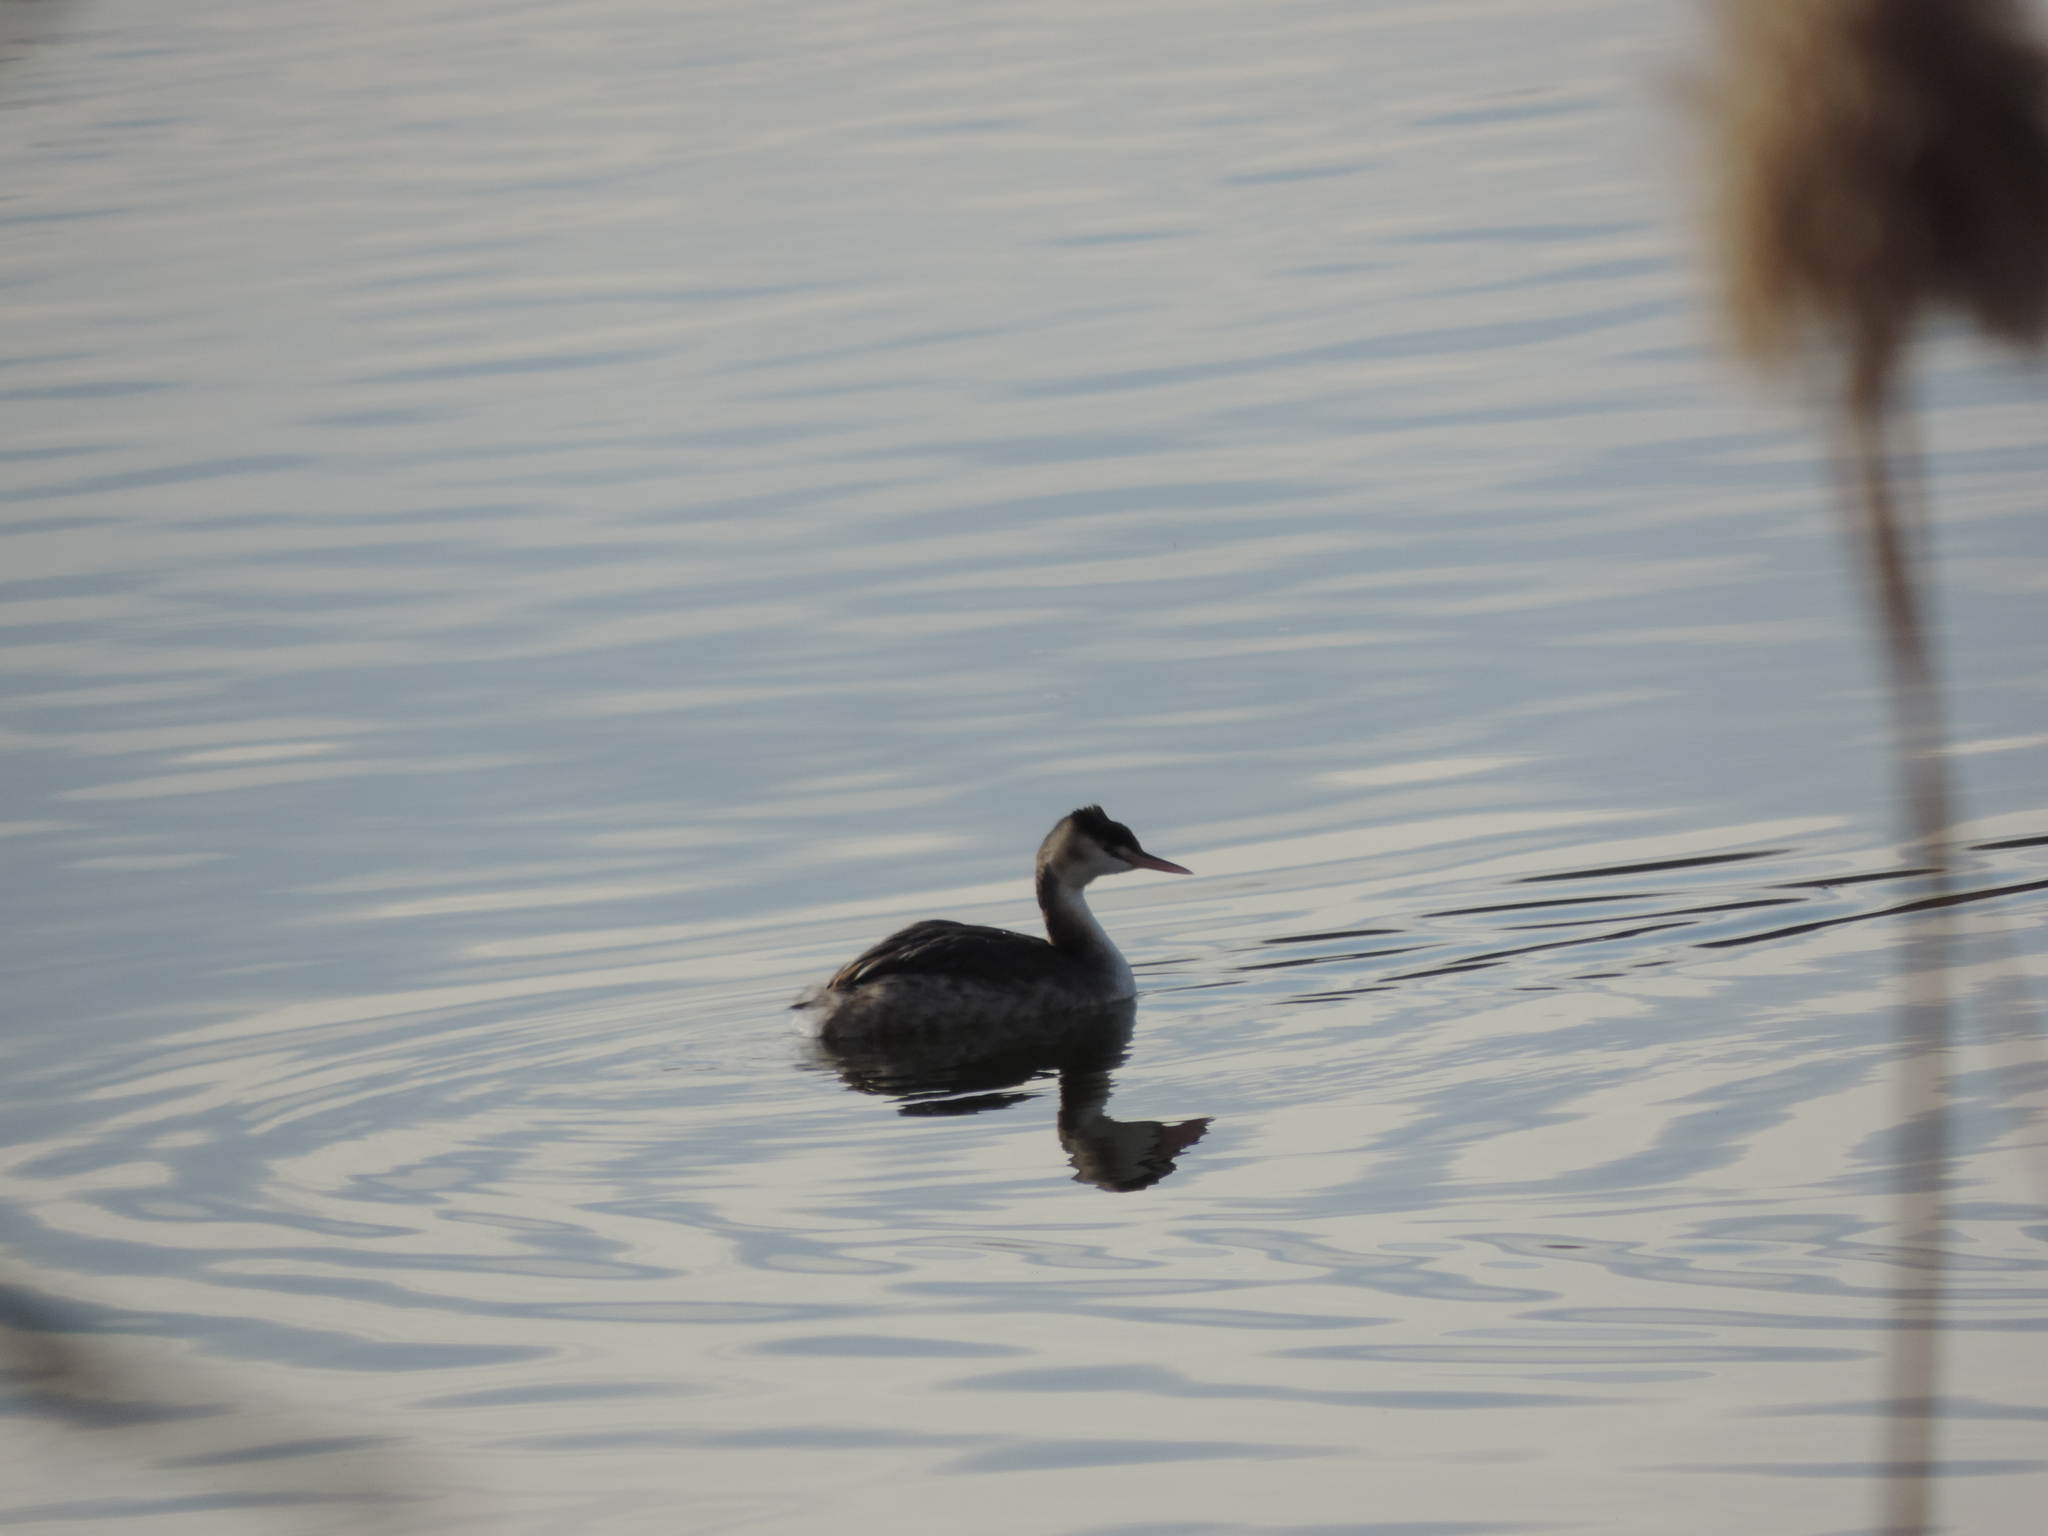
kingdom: Animalia
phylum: Chordata
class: Aves
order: Podicipediformes
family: Podicipedidae
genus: Podiceps
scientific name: Podiceps cristatus
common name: Great crested grebe
